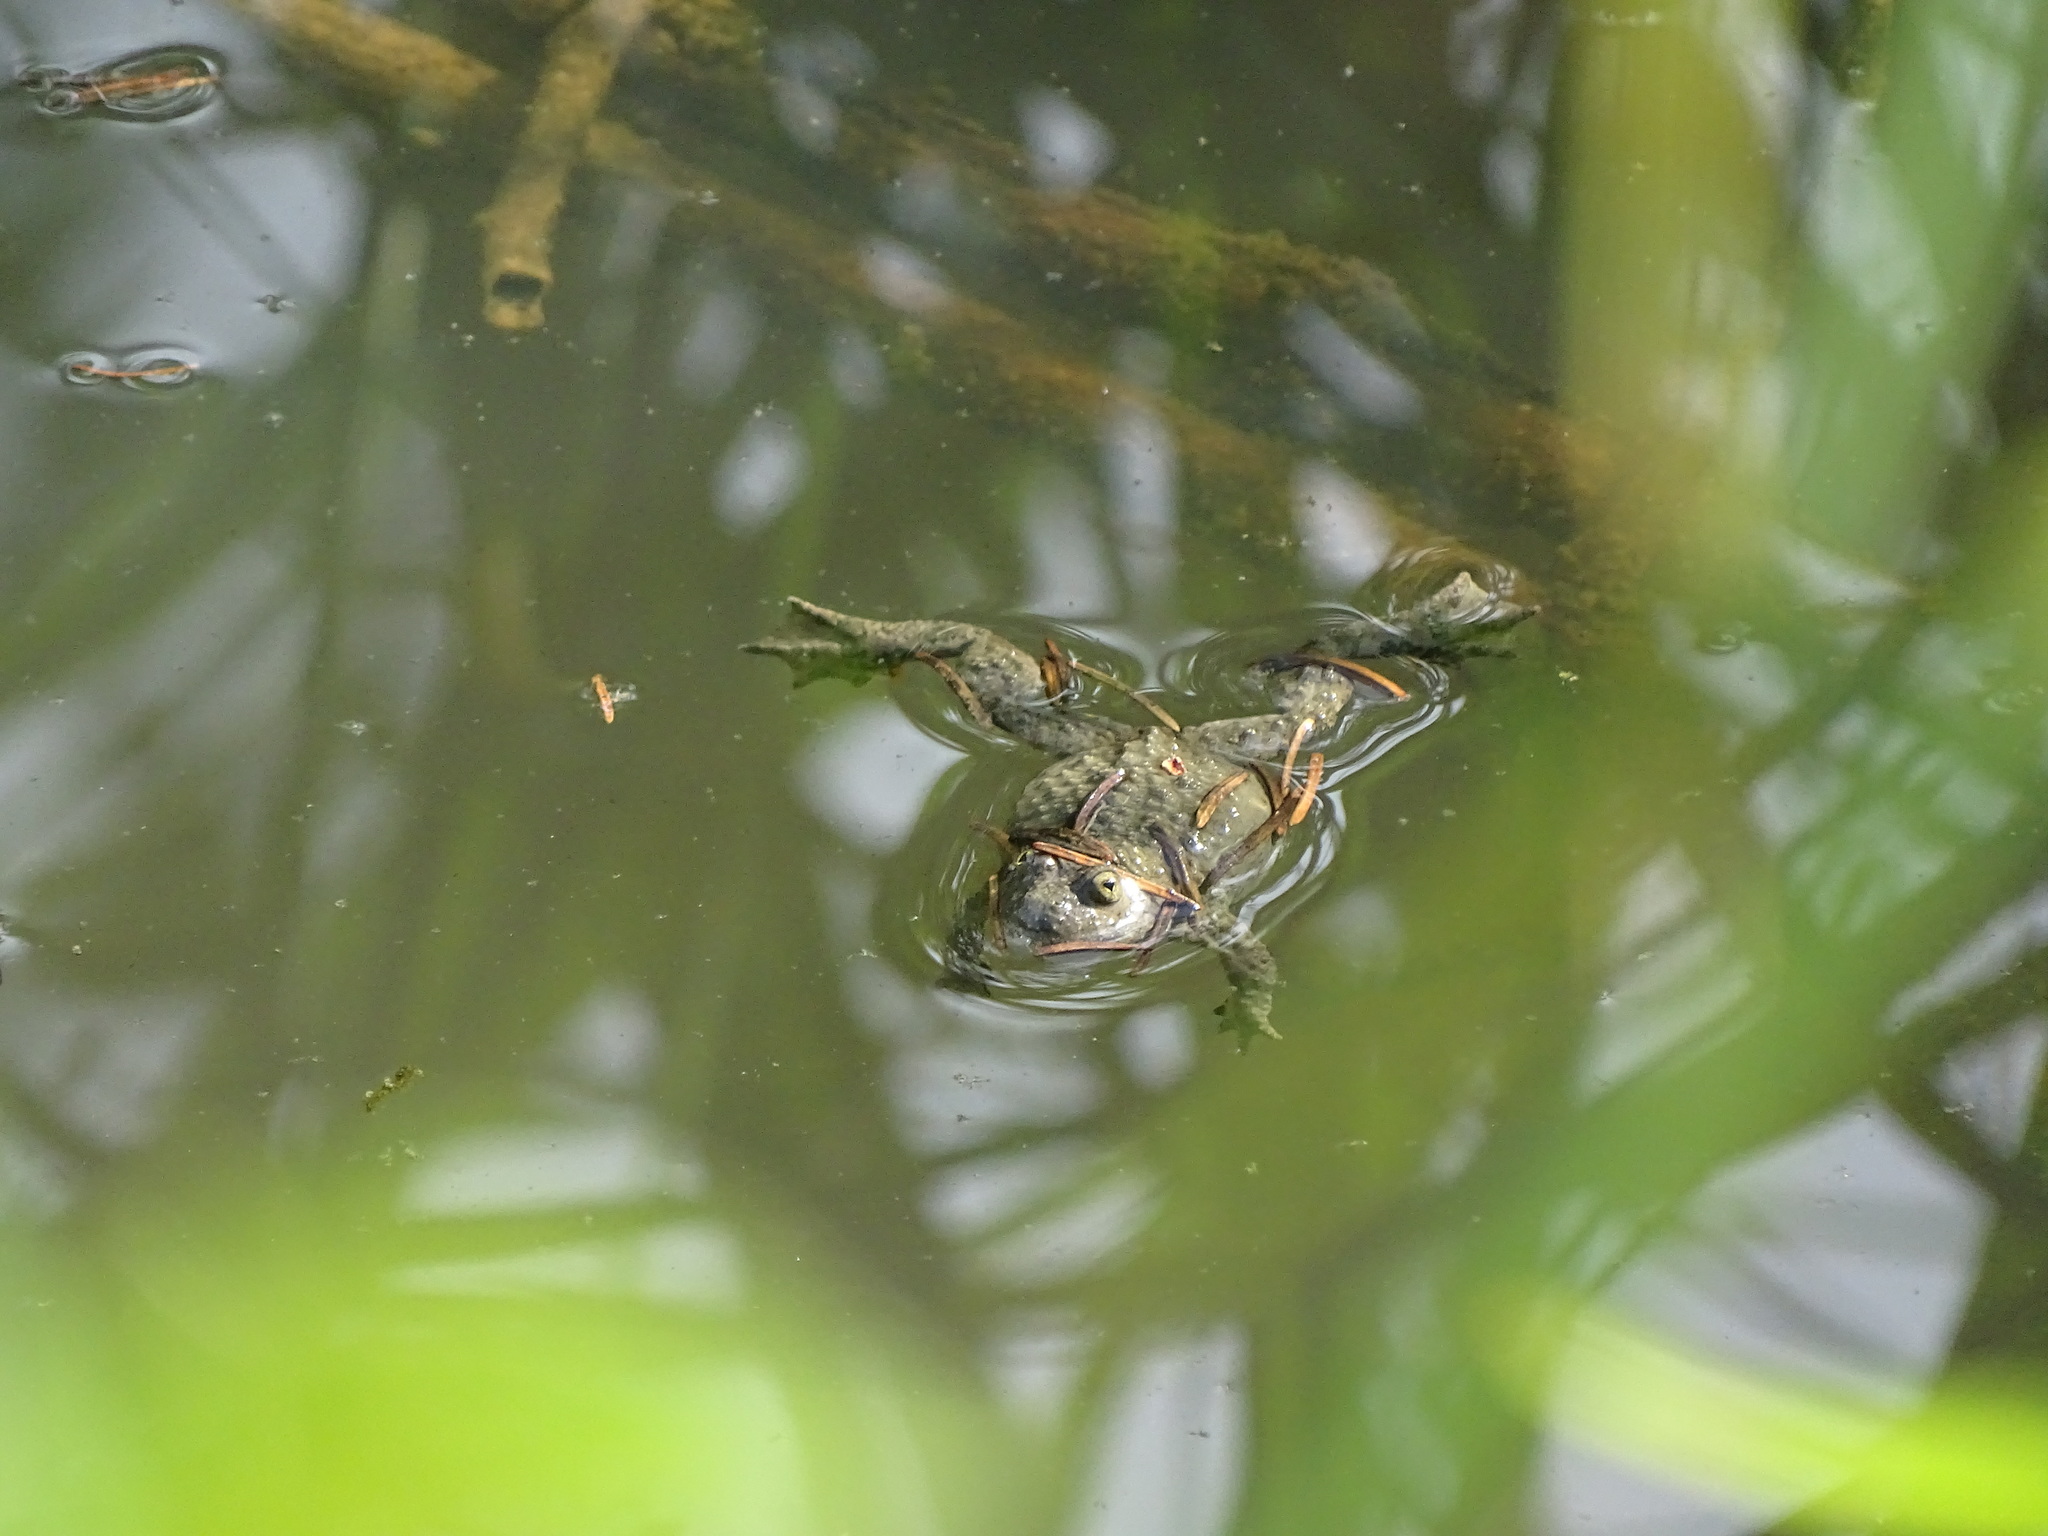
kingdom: Animalia
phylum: Chordata
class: Amphibia
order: Anura
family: Bombinatoridae
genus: Bombina
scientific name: Bombina variegata
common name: Yellow-bellied toad
